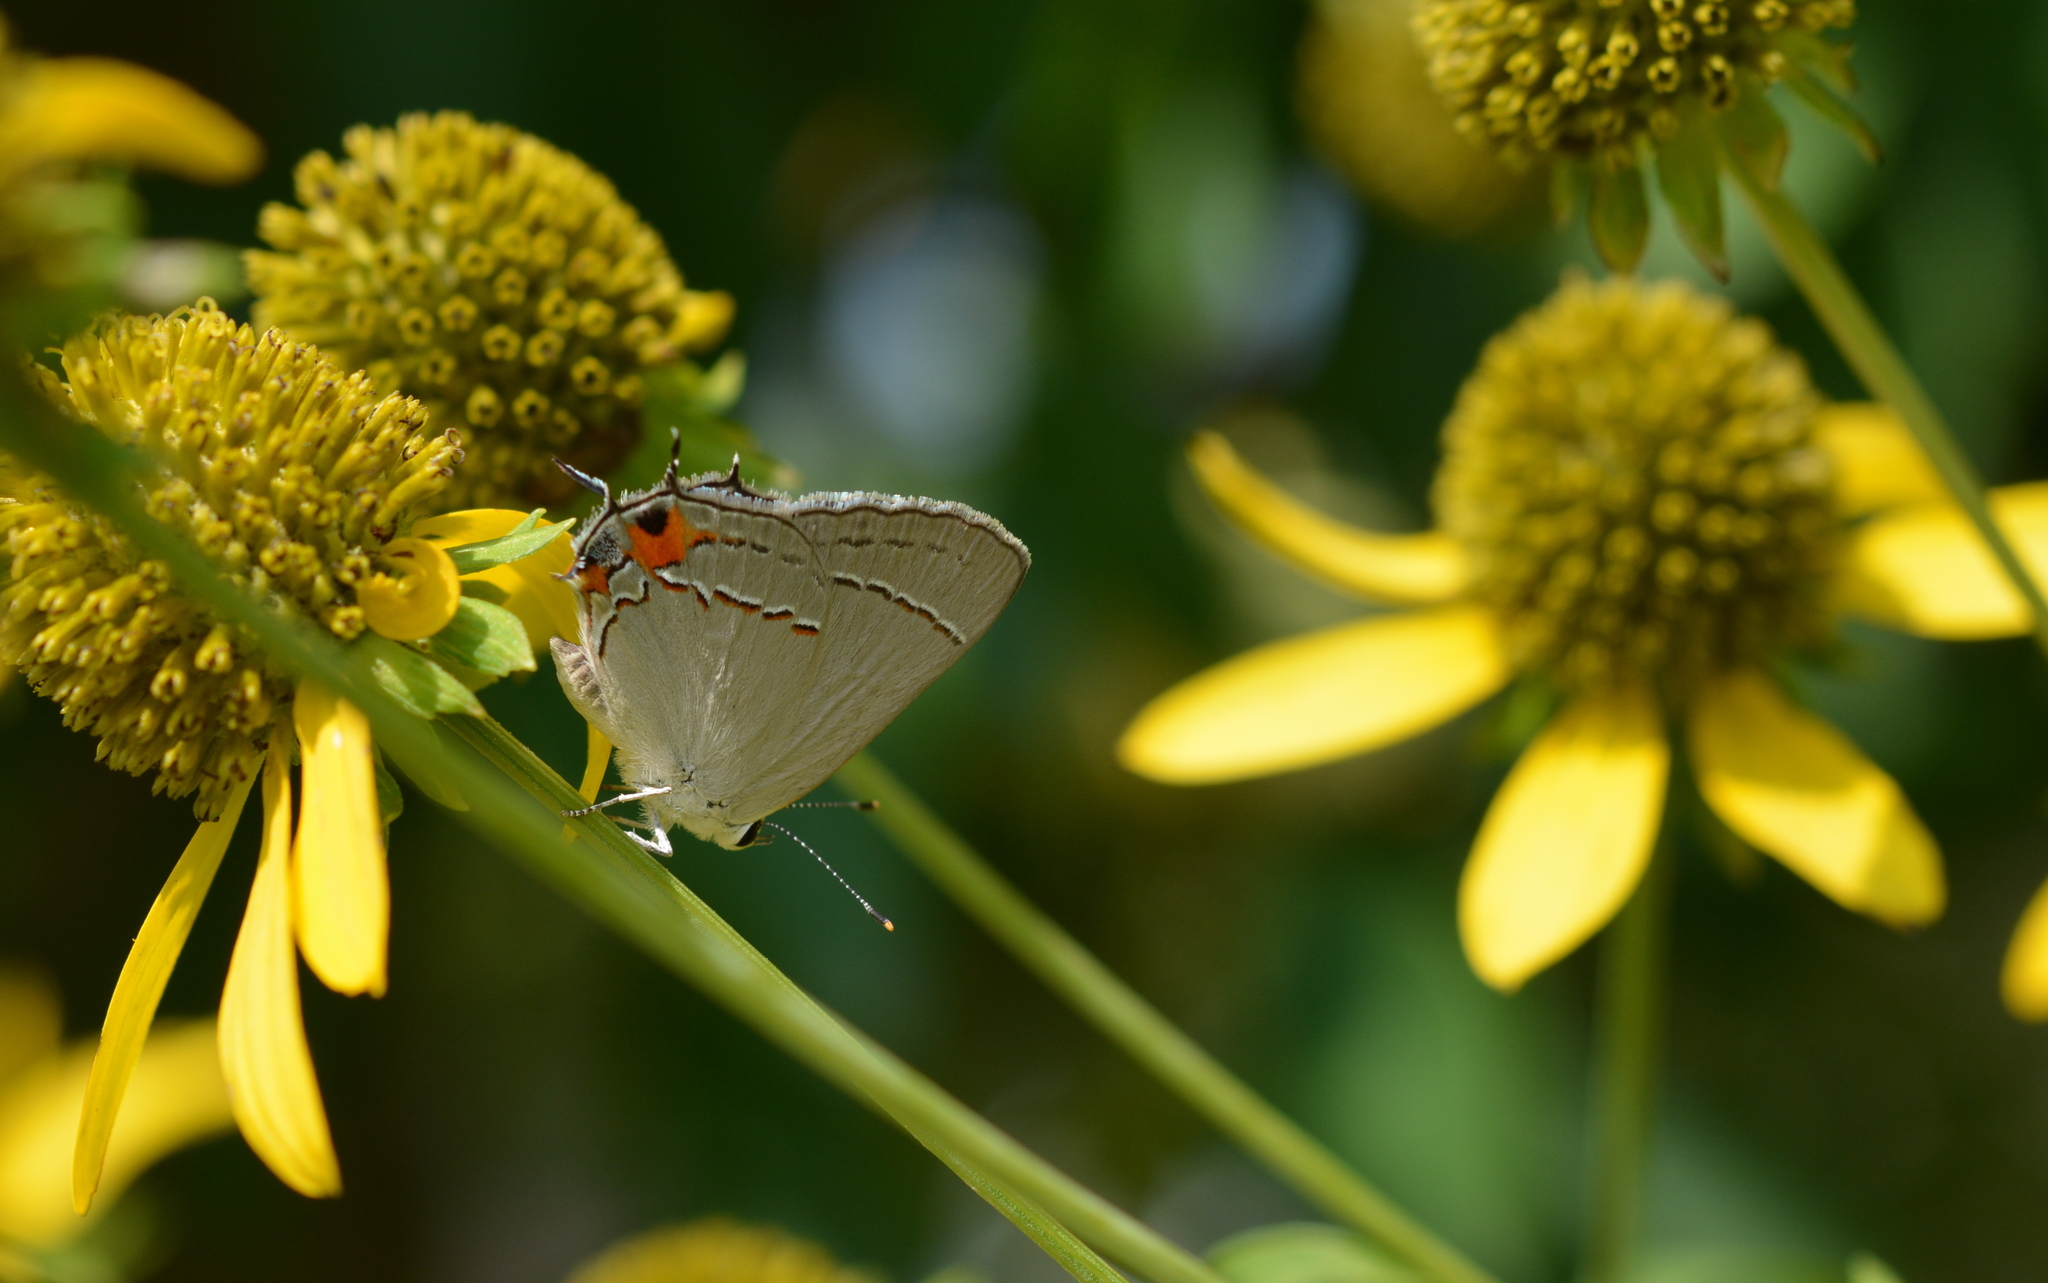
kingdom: Animalia
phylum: Arthropoda
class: Insecta
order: Lepidoptera
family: Lycaenidae
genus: Strymon
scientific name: Strymon melinus
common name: Gray hairstreak
